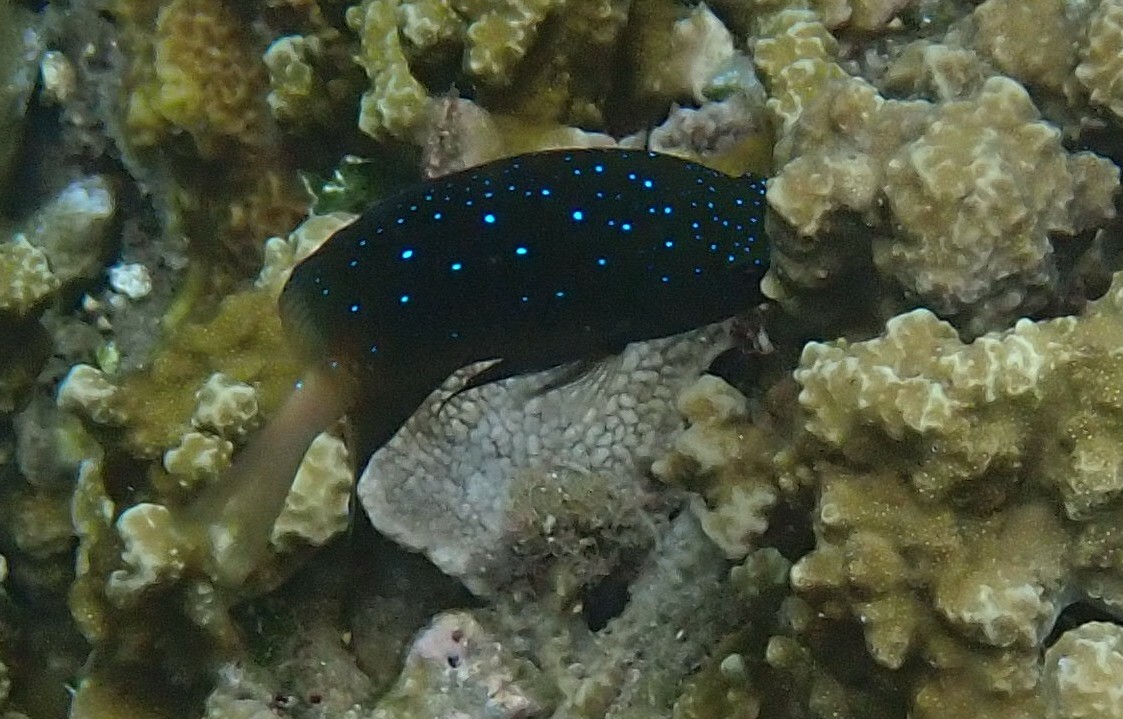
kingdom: Animalia
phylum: Chordata
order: Perciformes
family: Pomacentridae
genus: Plectroglyphidodon
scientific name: Plectroglyphidodon lacrymatus
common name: Jewel damsel
